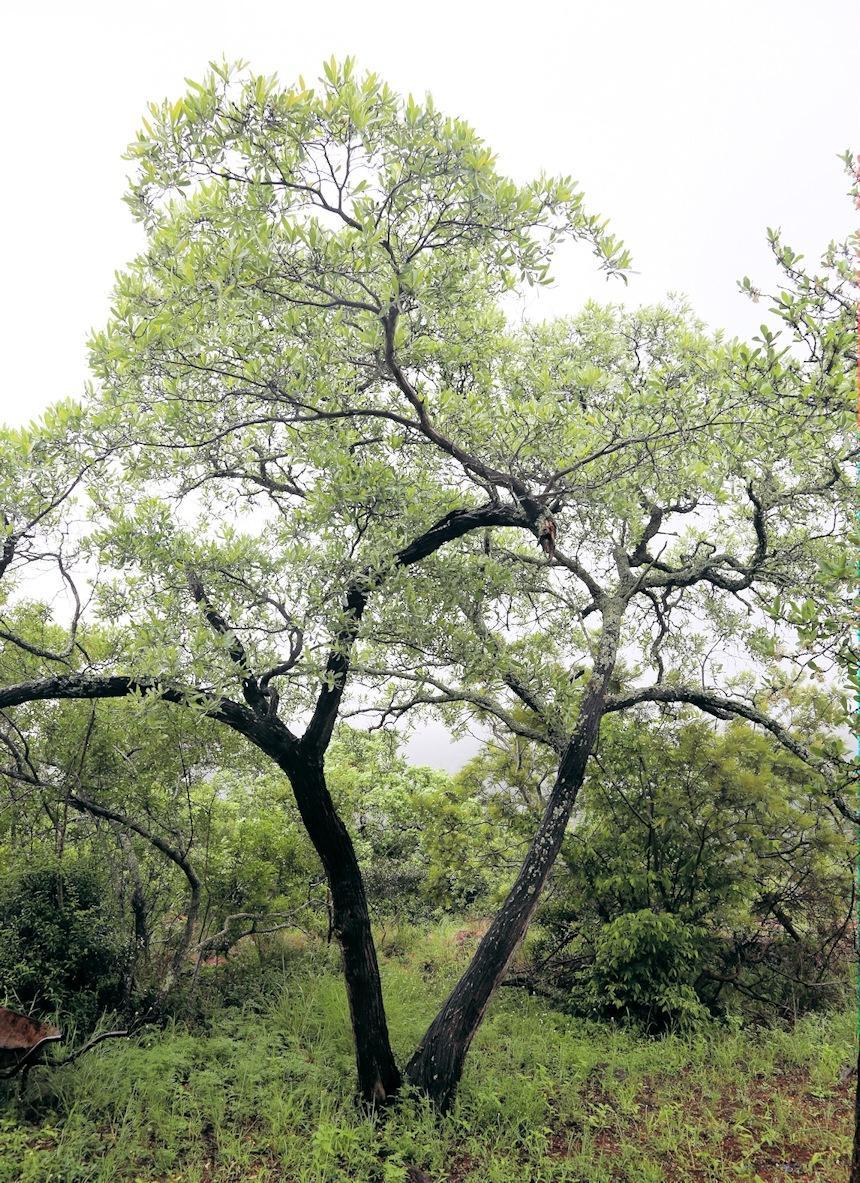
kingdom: Plantae
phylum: Tracheophyta
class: Magnoliopsida
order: Myrtales
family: Combretaceae
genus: Terminalia
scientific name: Terminalia sericea
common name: Clusterleaf
